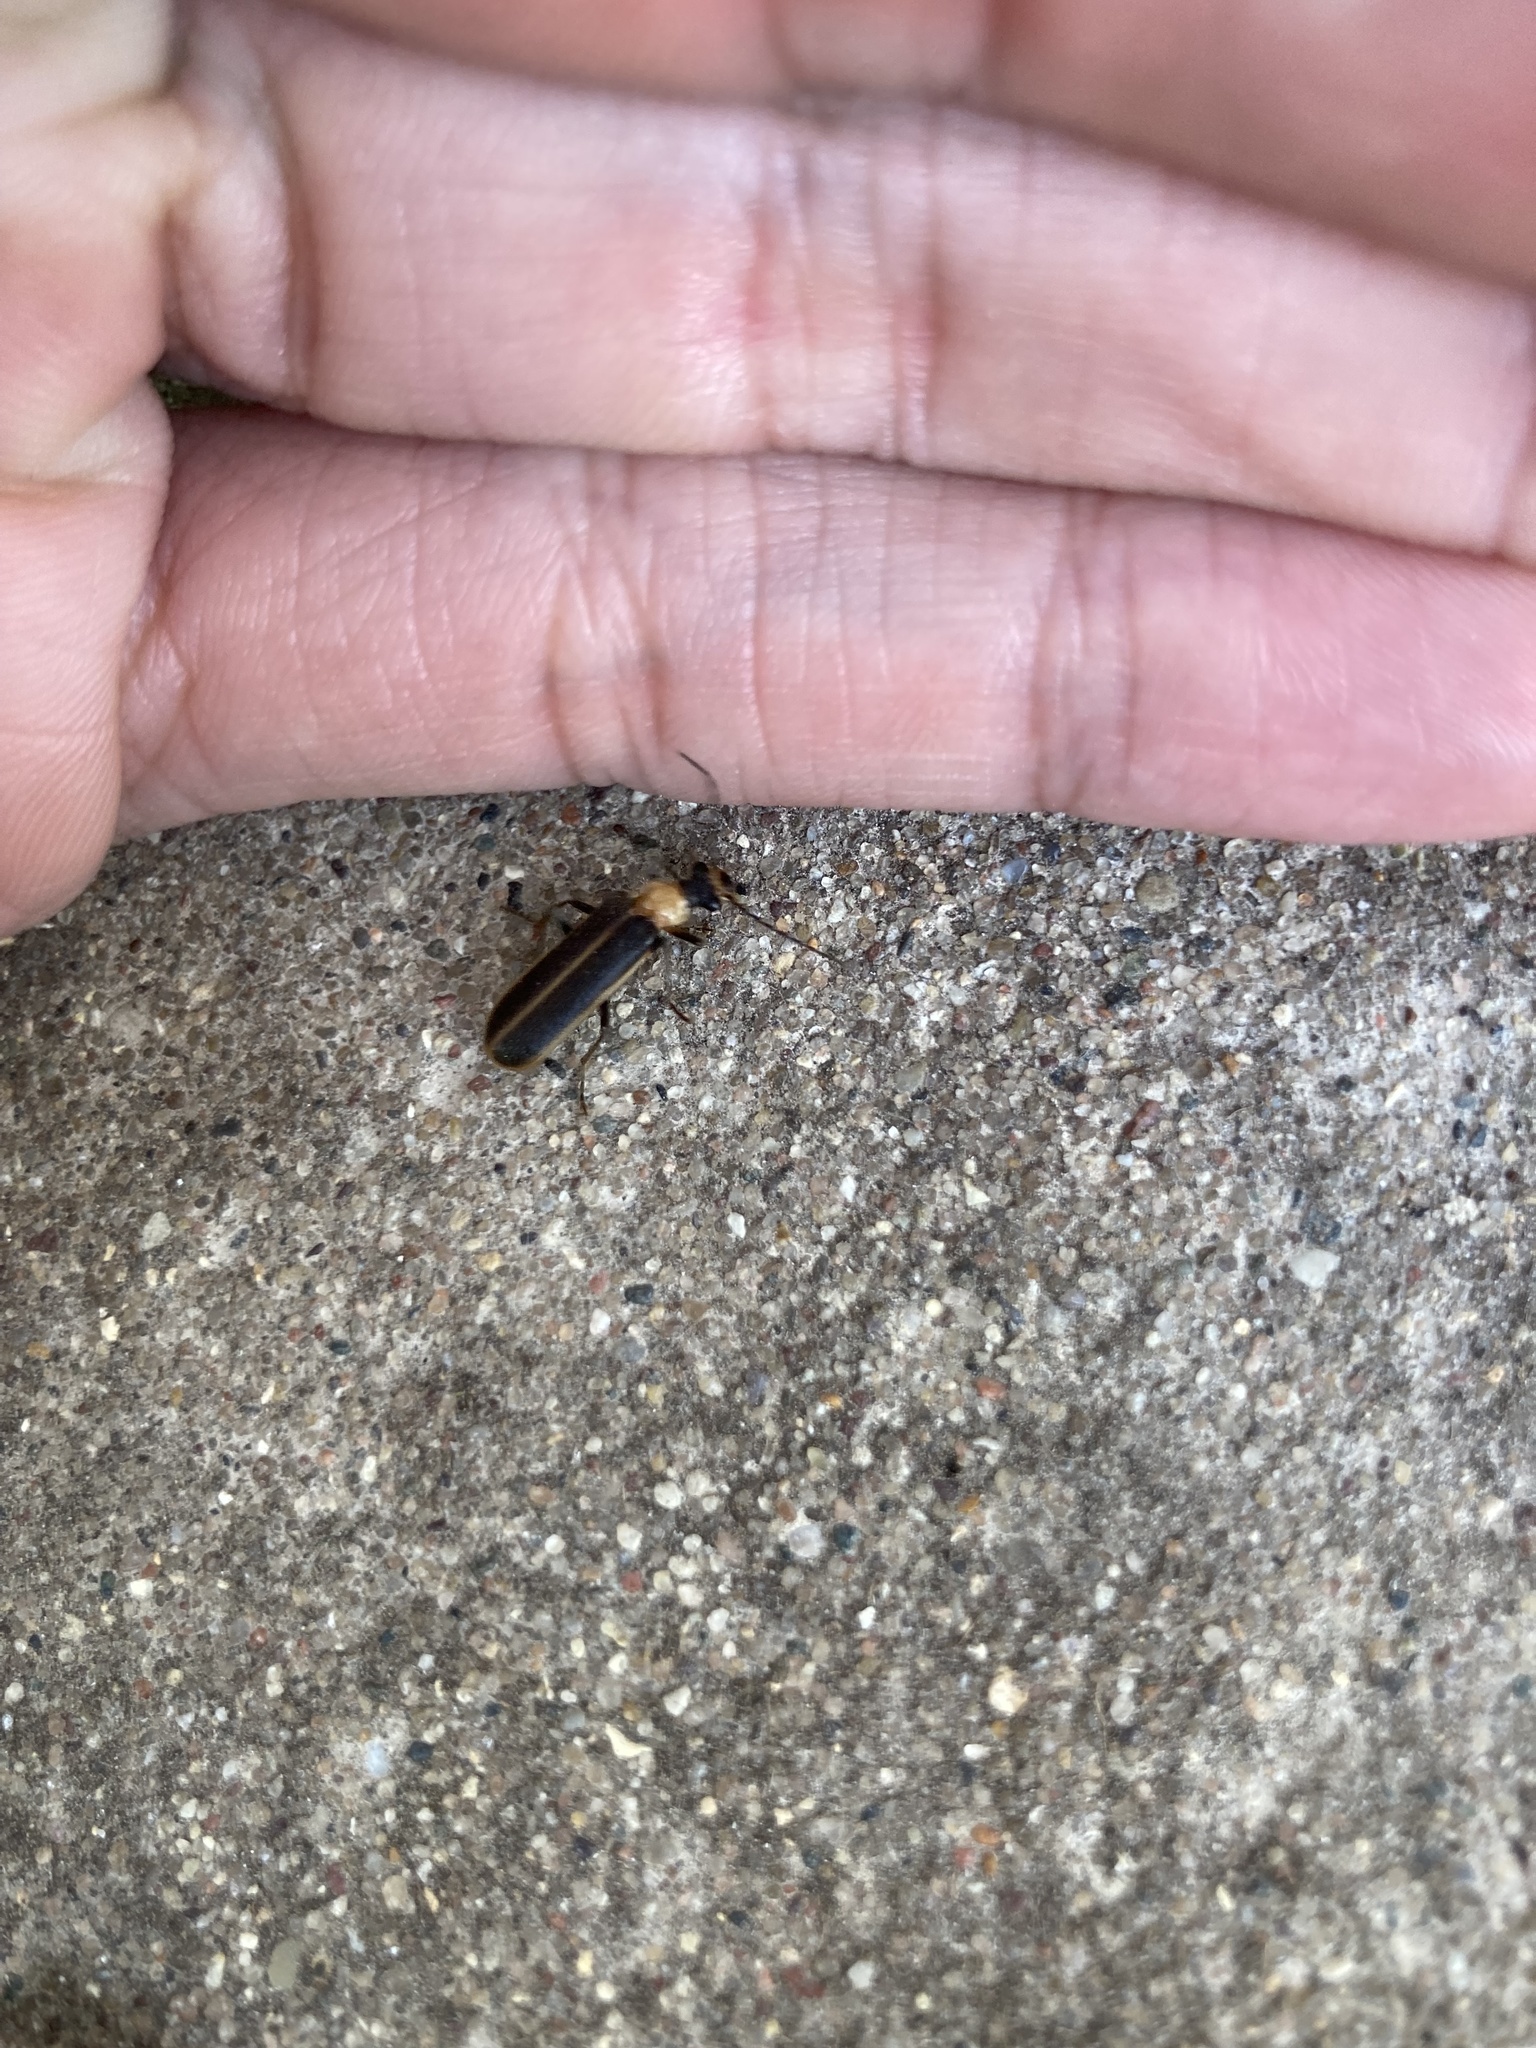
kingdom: Animalia
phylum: Arthropoda
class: Insecta
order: Coleoptera
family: Cantharidae
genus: Podabrus
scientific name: Podabrus flavicollis
